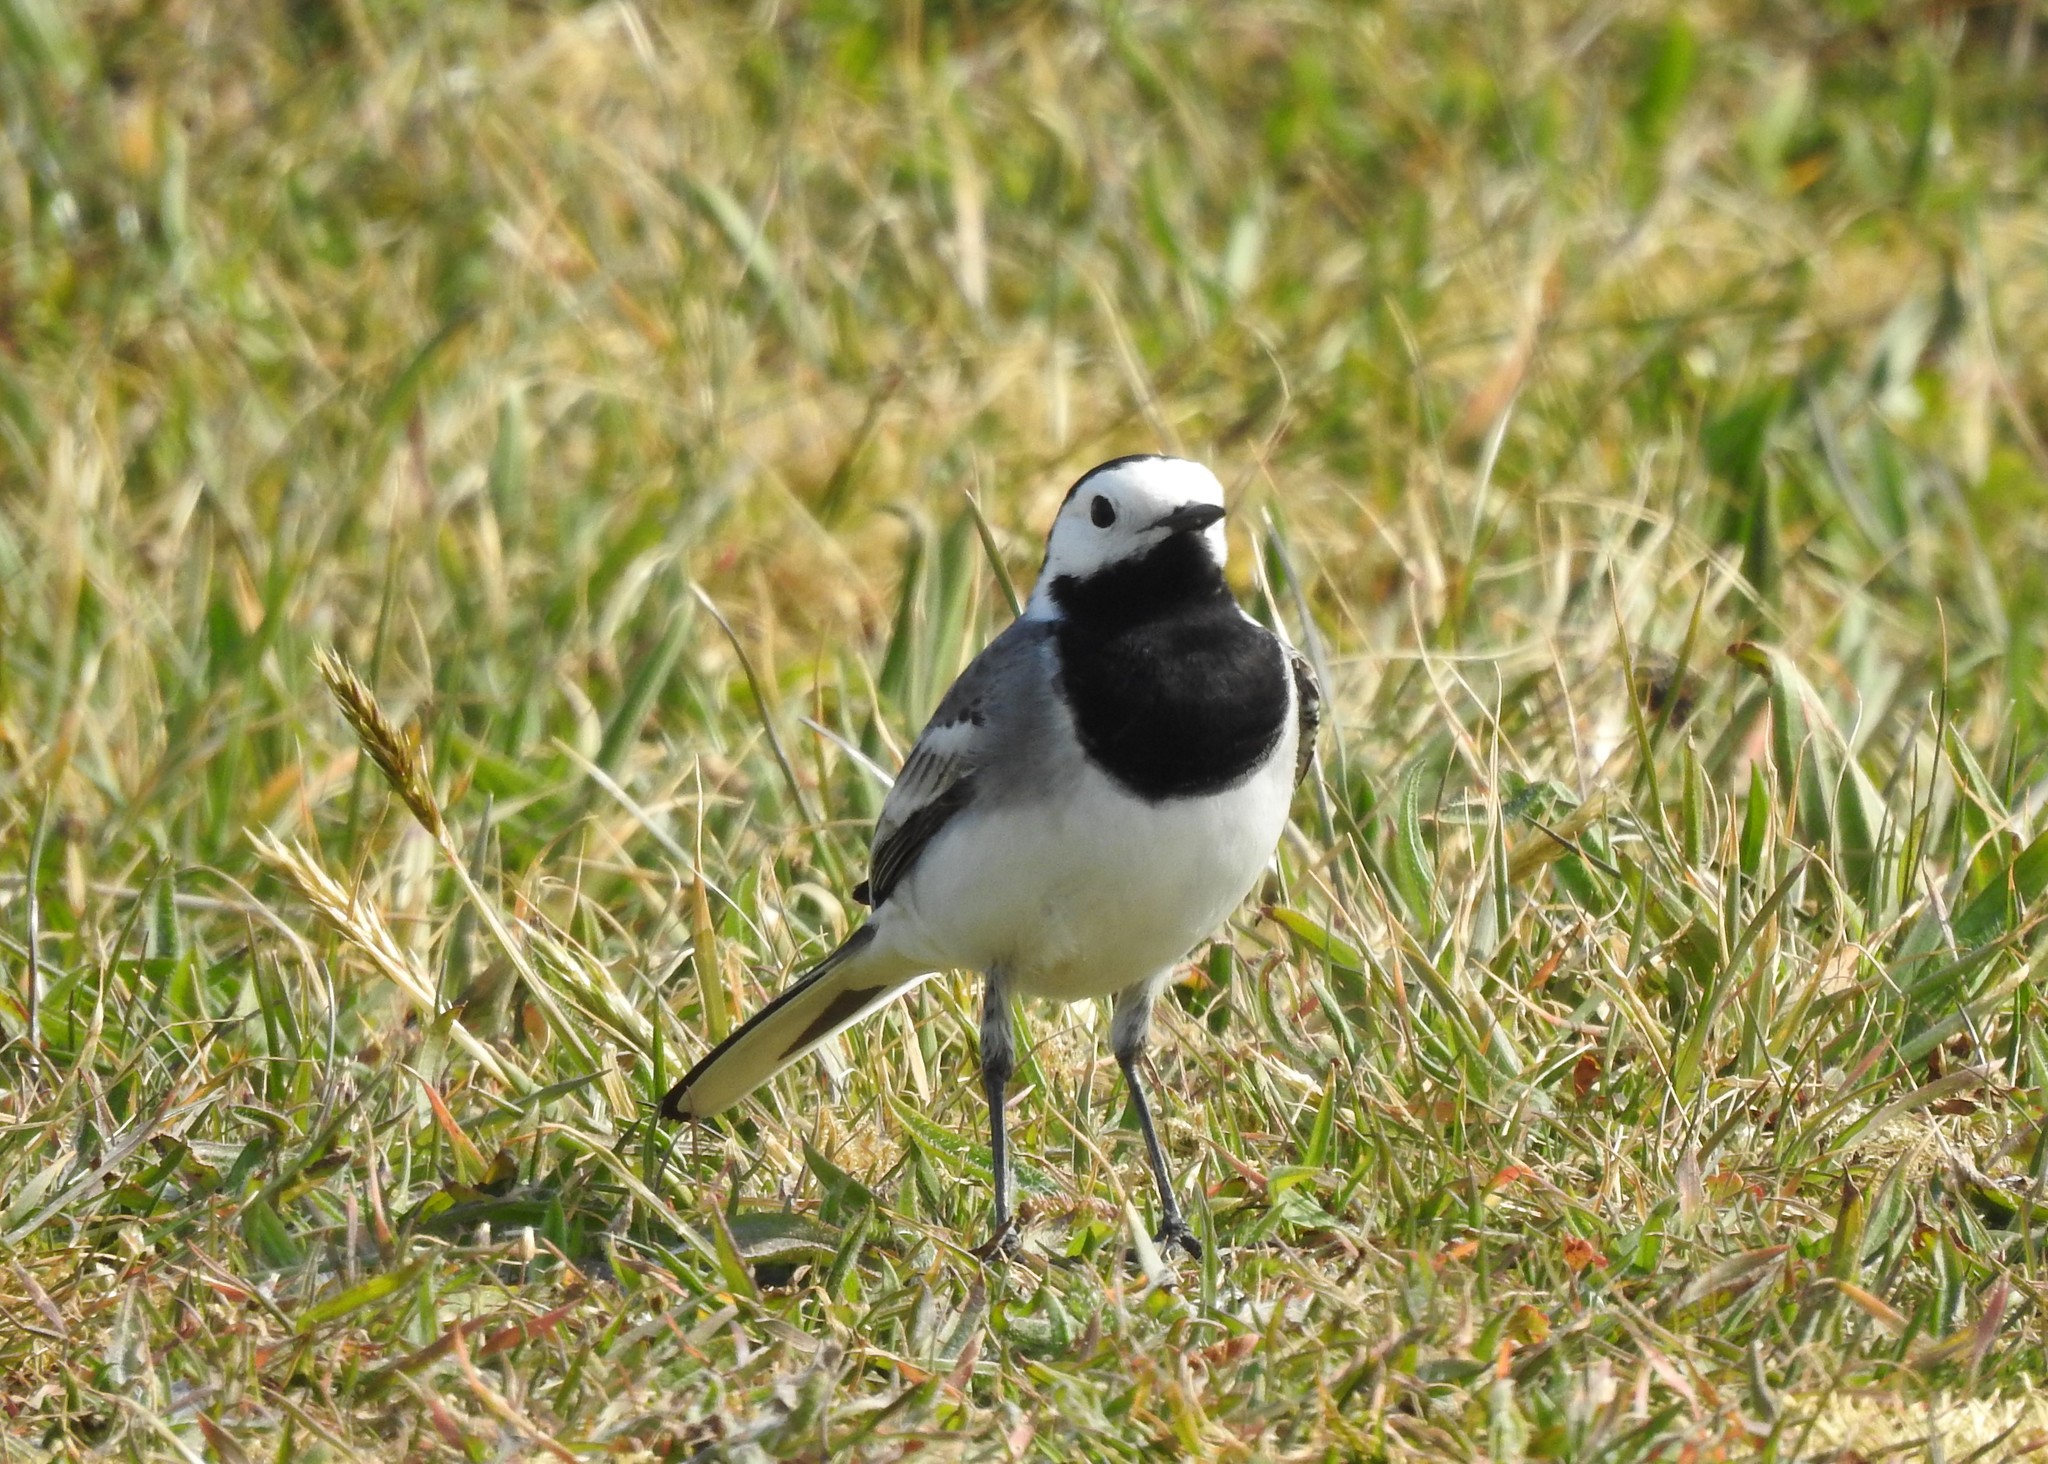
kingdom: Animalia
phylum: Chordata
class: Aves
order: Passeriformes
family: Motacillidae
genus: Motacilla
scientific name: Motacilla alba
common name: White wagtail
